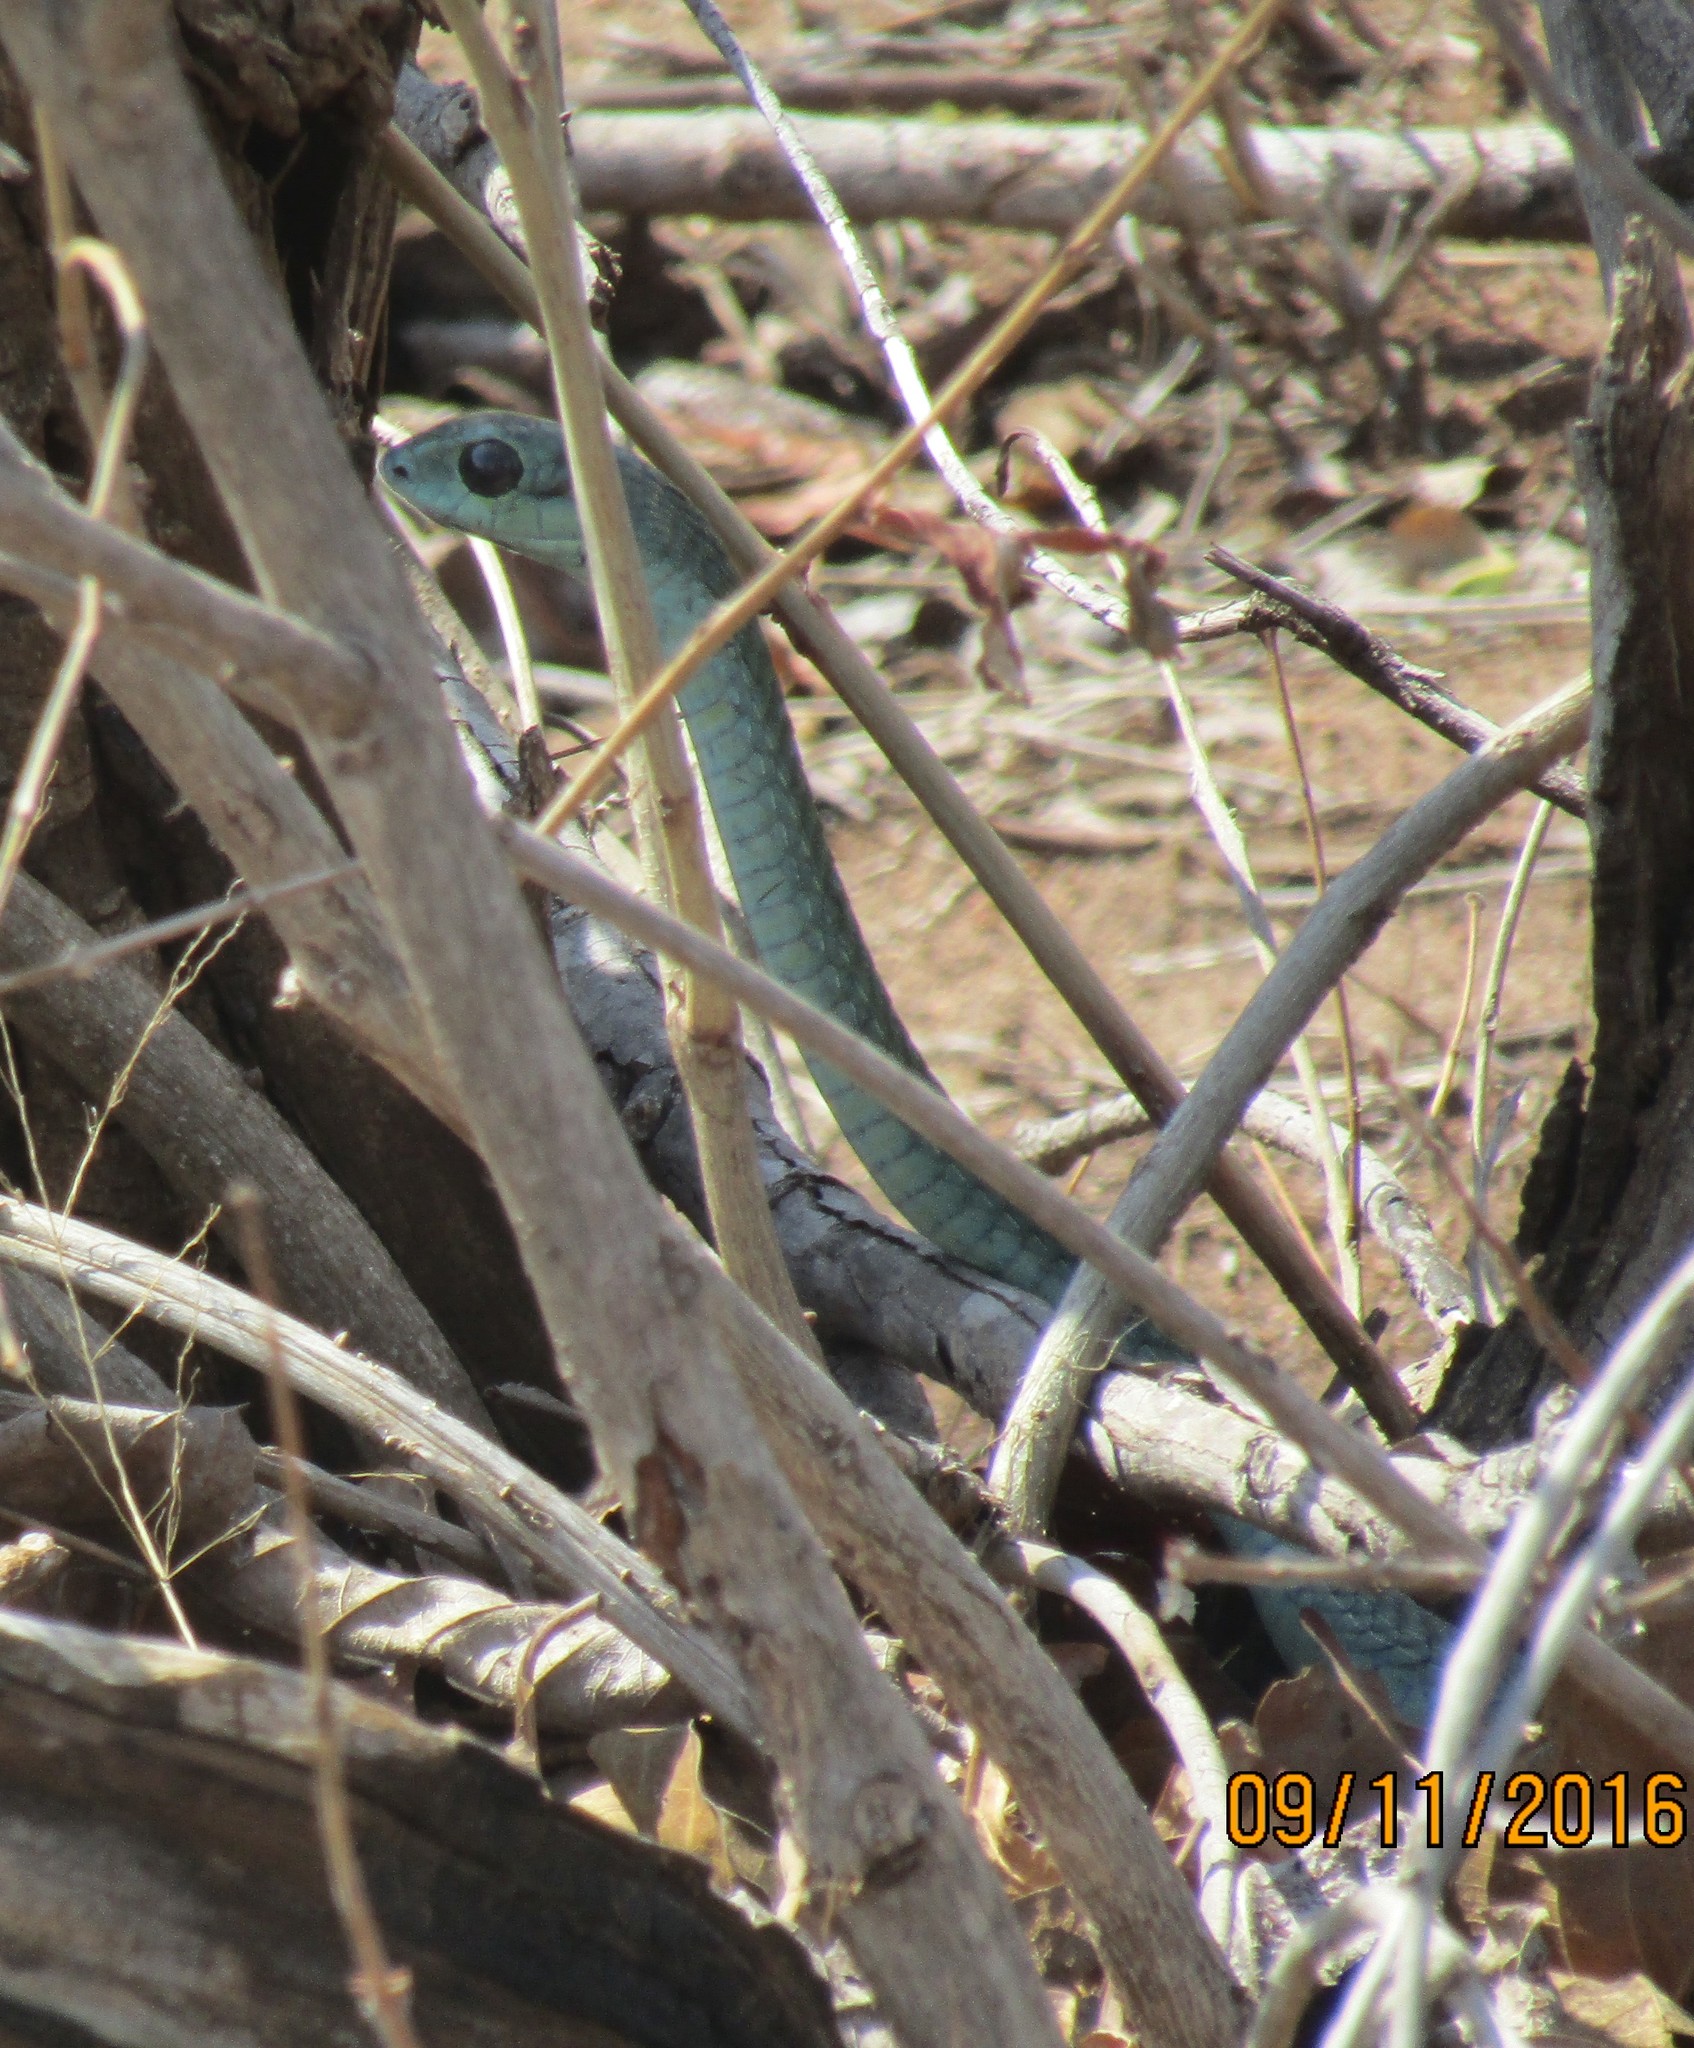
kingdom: Animalia
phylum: Chordata
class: Squamata
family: Colubridae
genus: Dispholidus
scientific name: Dispholidus typus
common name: Boomslang
